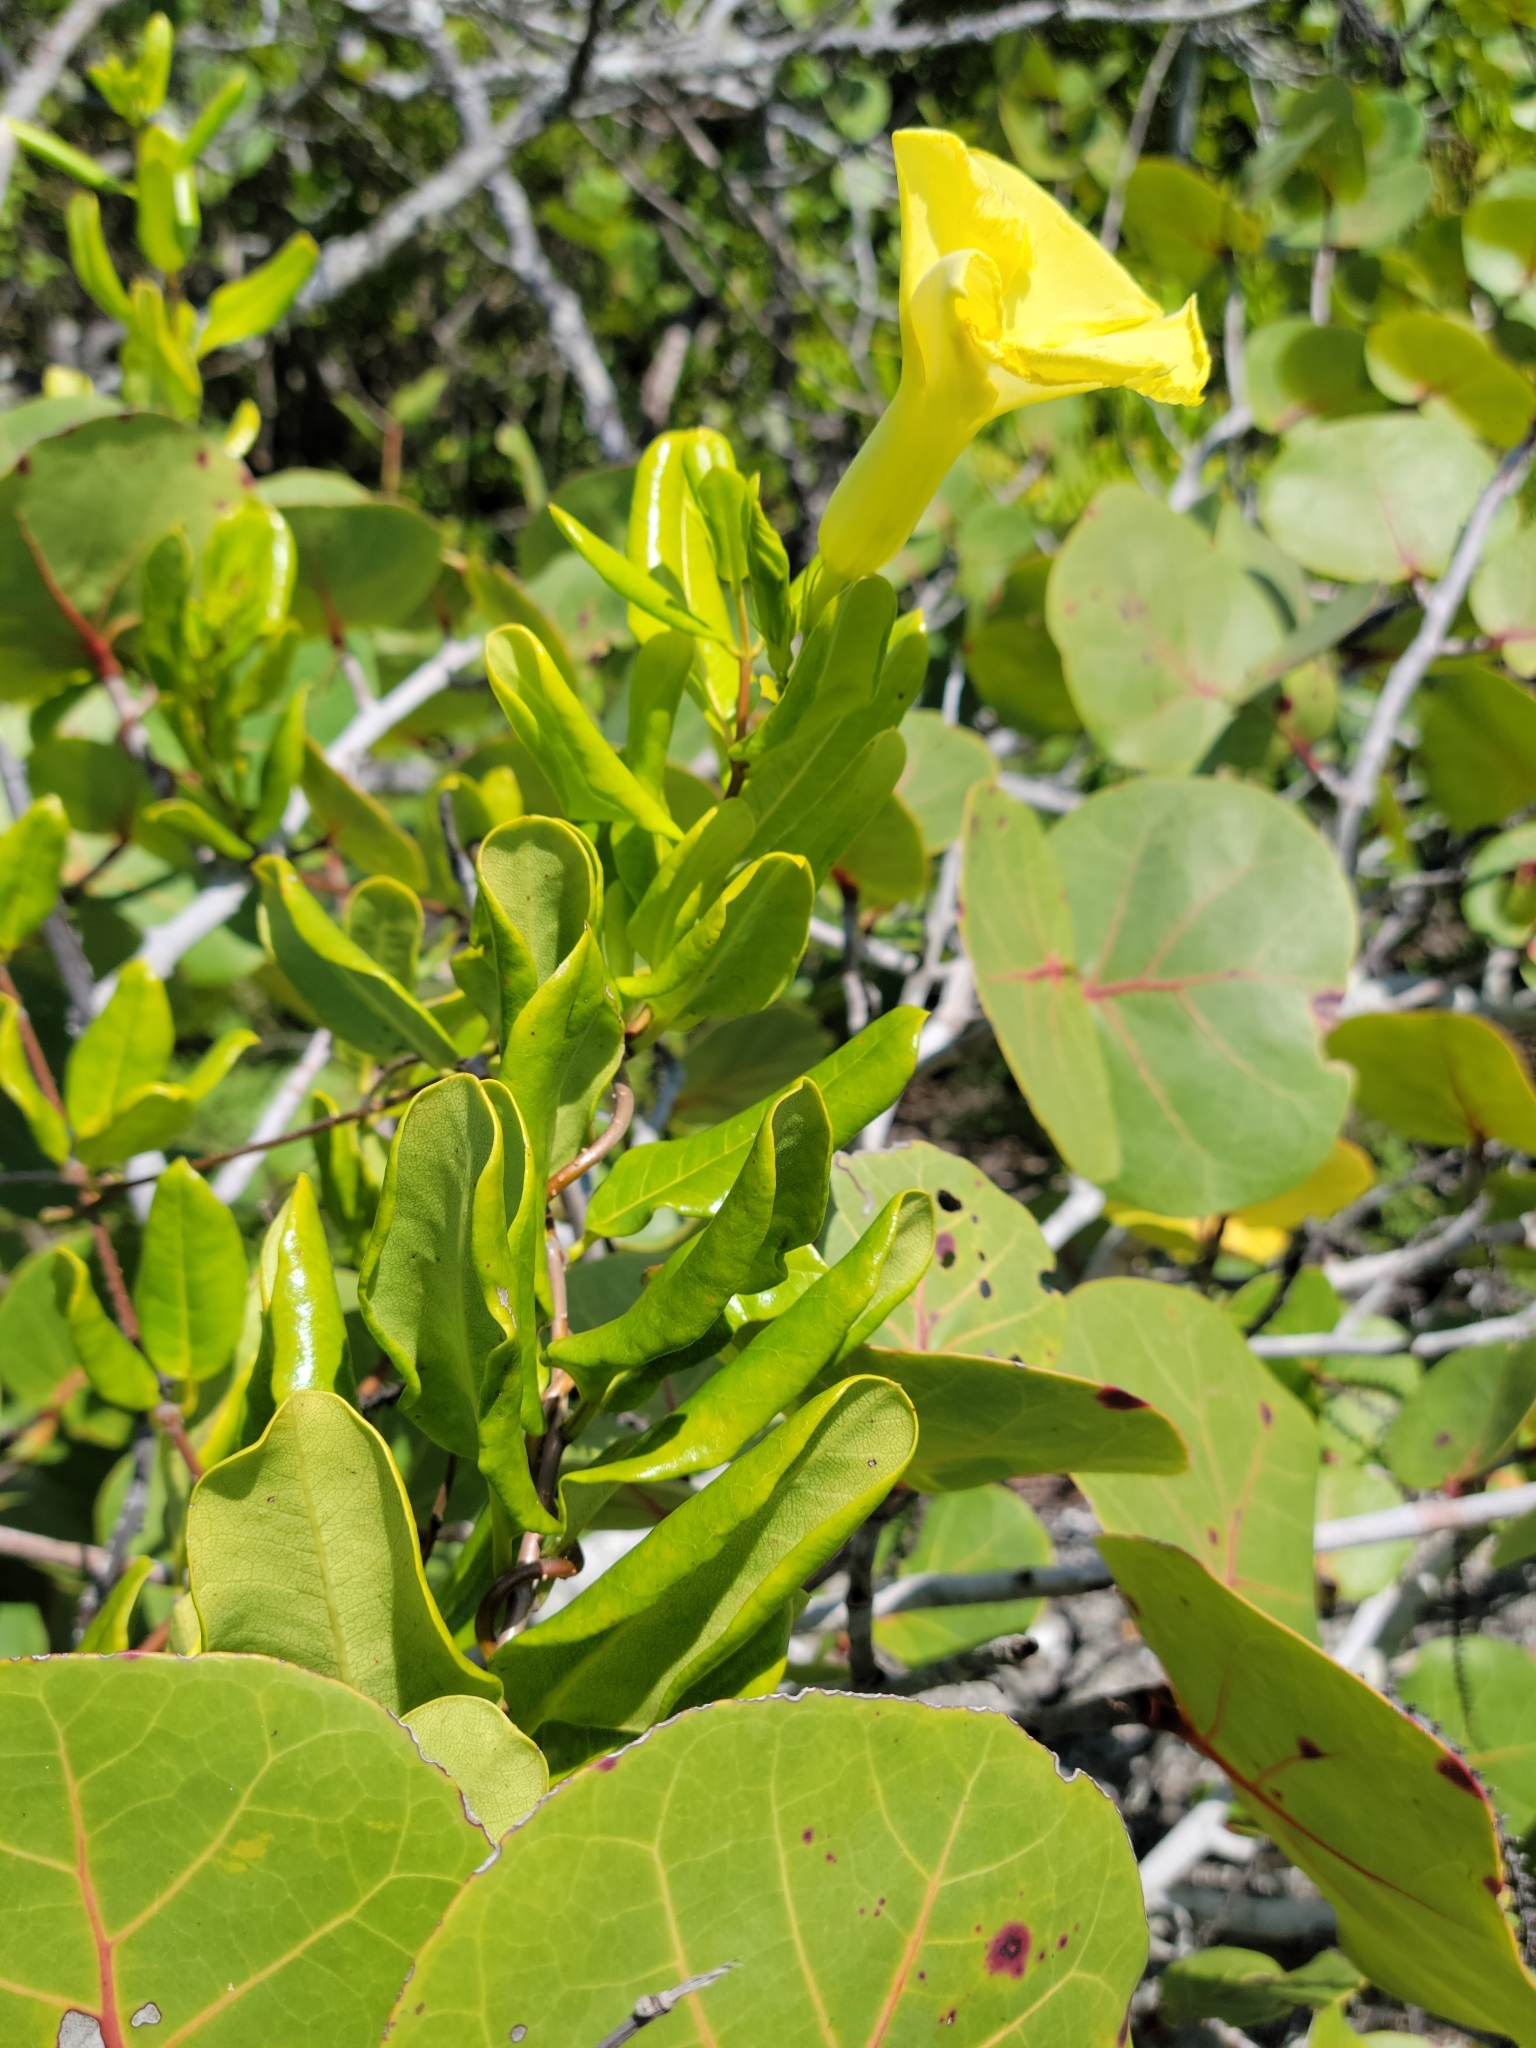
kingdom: Plantae
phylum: Tracheophyta
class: Magnoliopsida
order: Gentianales
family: Apocynaceae
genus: Pentalinon
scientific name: Pentalinon luteum
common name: Licebush
